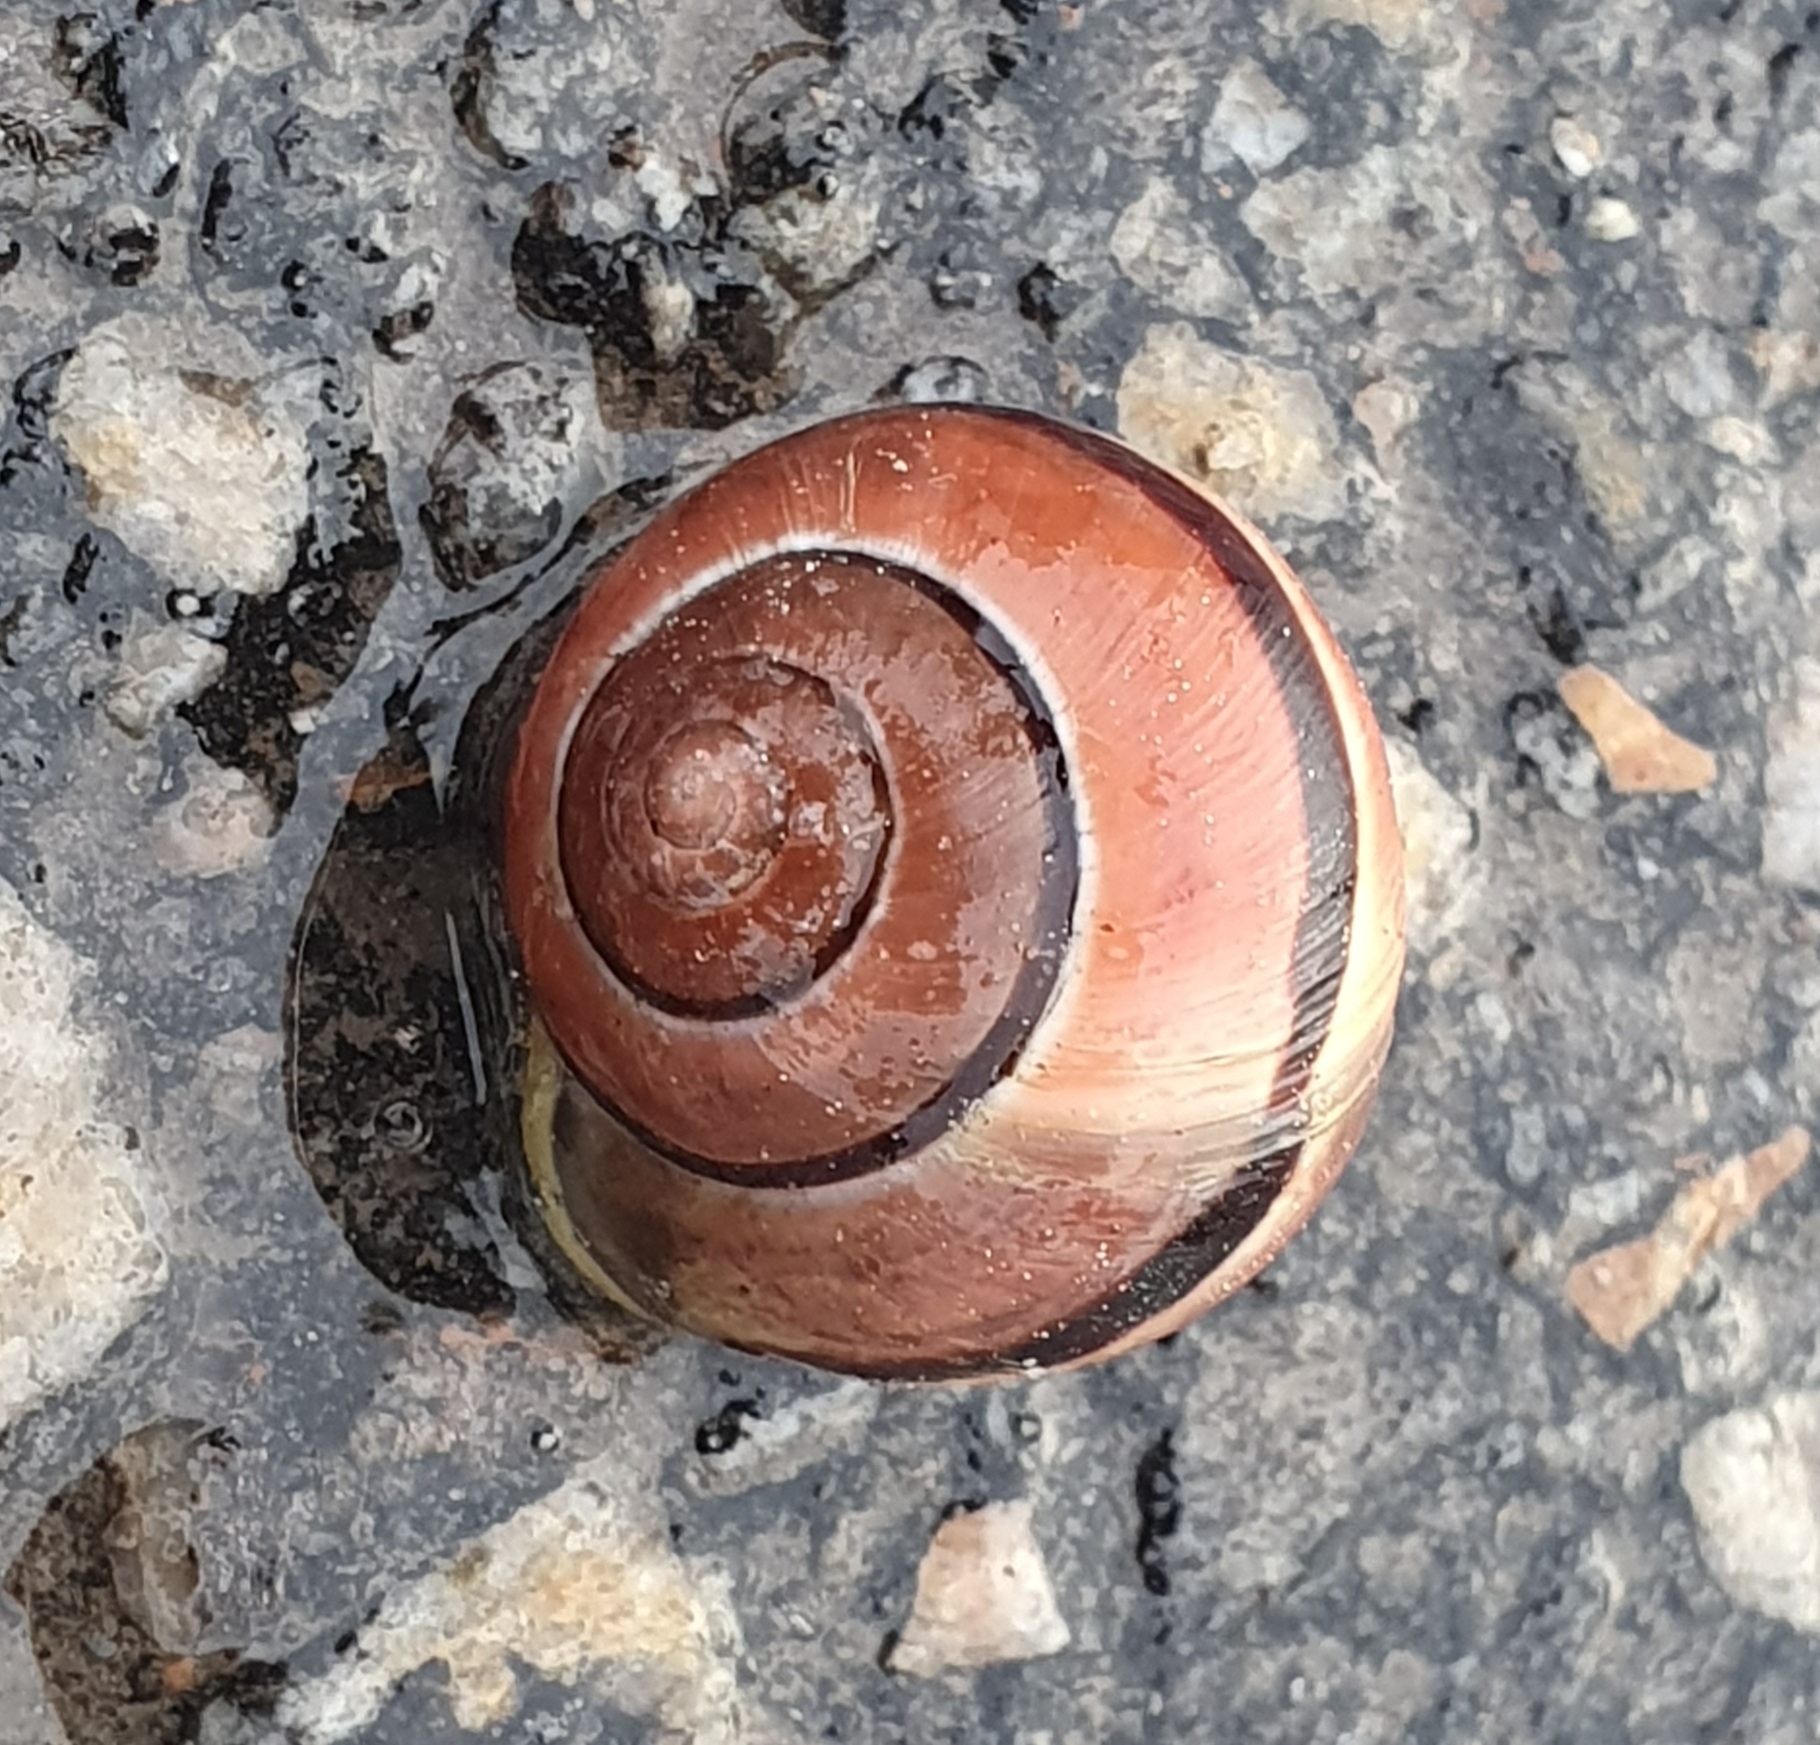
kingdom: Animalia
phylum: Mollusca
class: Gastropoda
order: Stylommatophora
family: Helicidae
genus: Cepaea
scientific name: Cepaea
